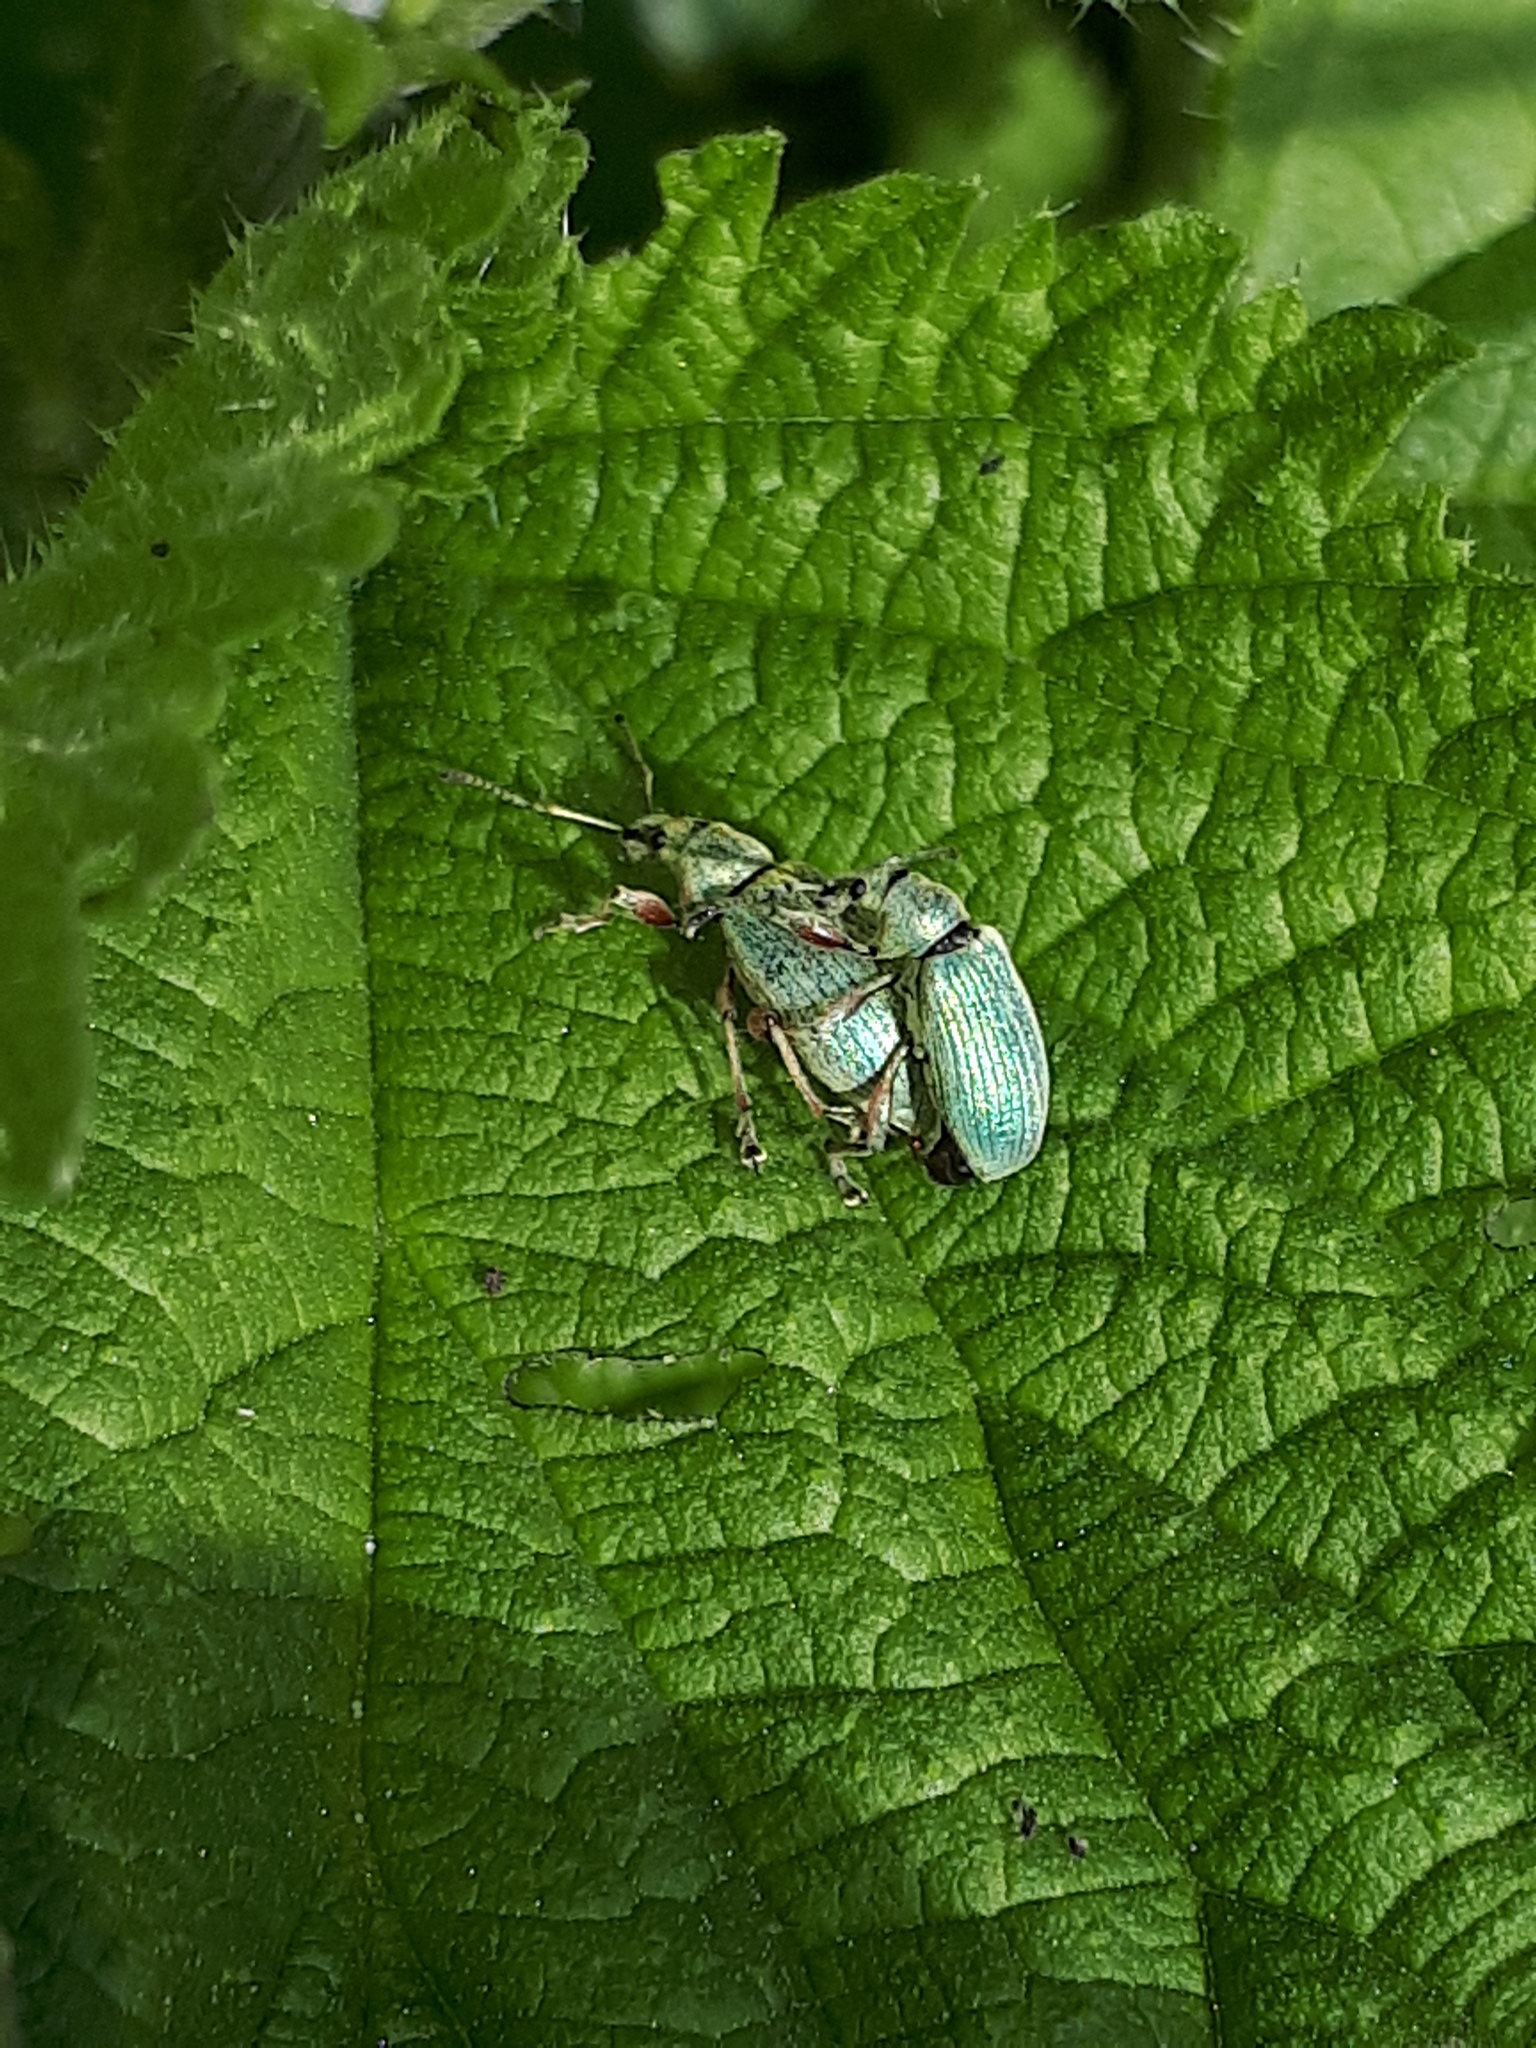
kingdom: Animalia
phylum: Arthropoda
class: Insecta
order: Coleoptera
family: Curculionidae
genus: Phyllobius
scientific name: Phyllobius pomaceus
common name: Green nettle weevil
